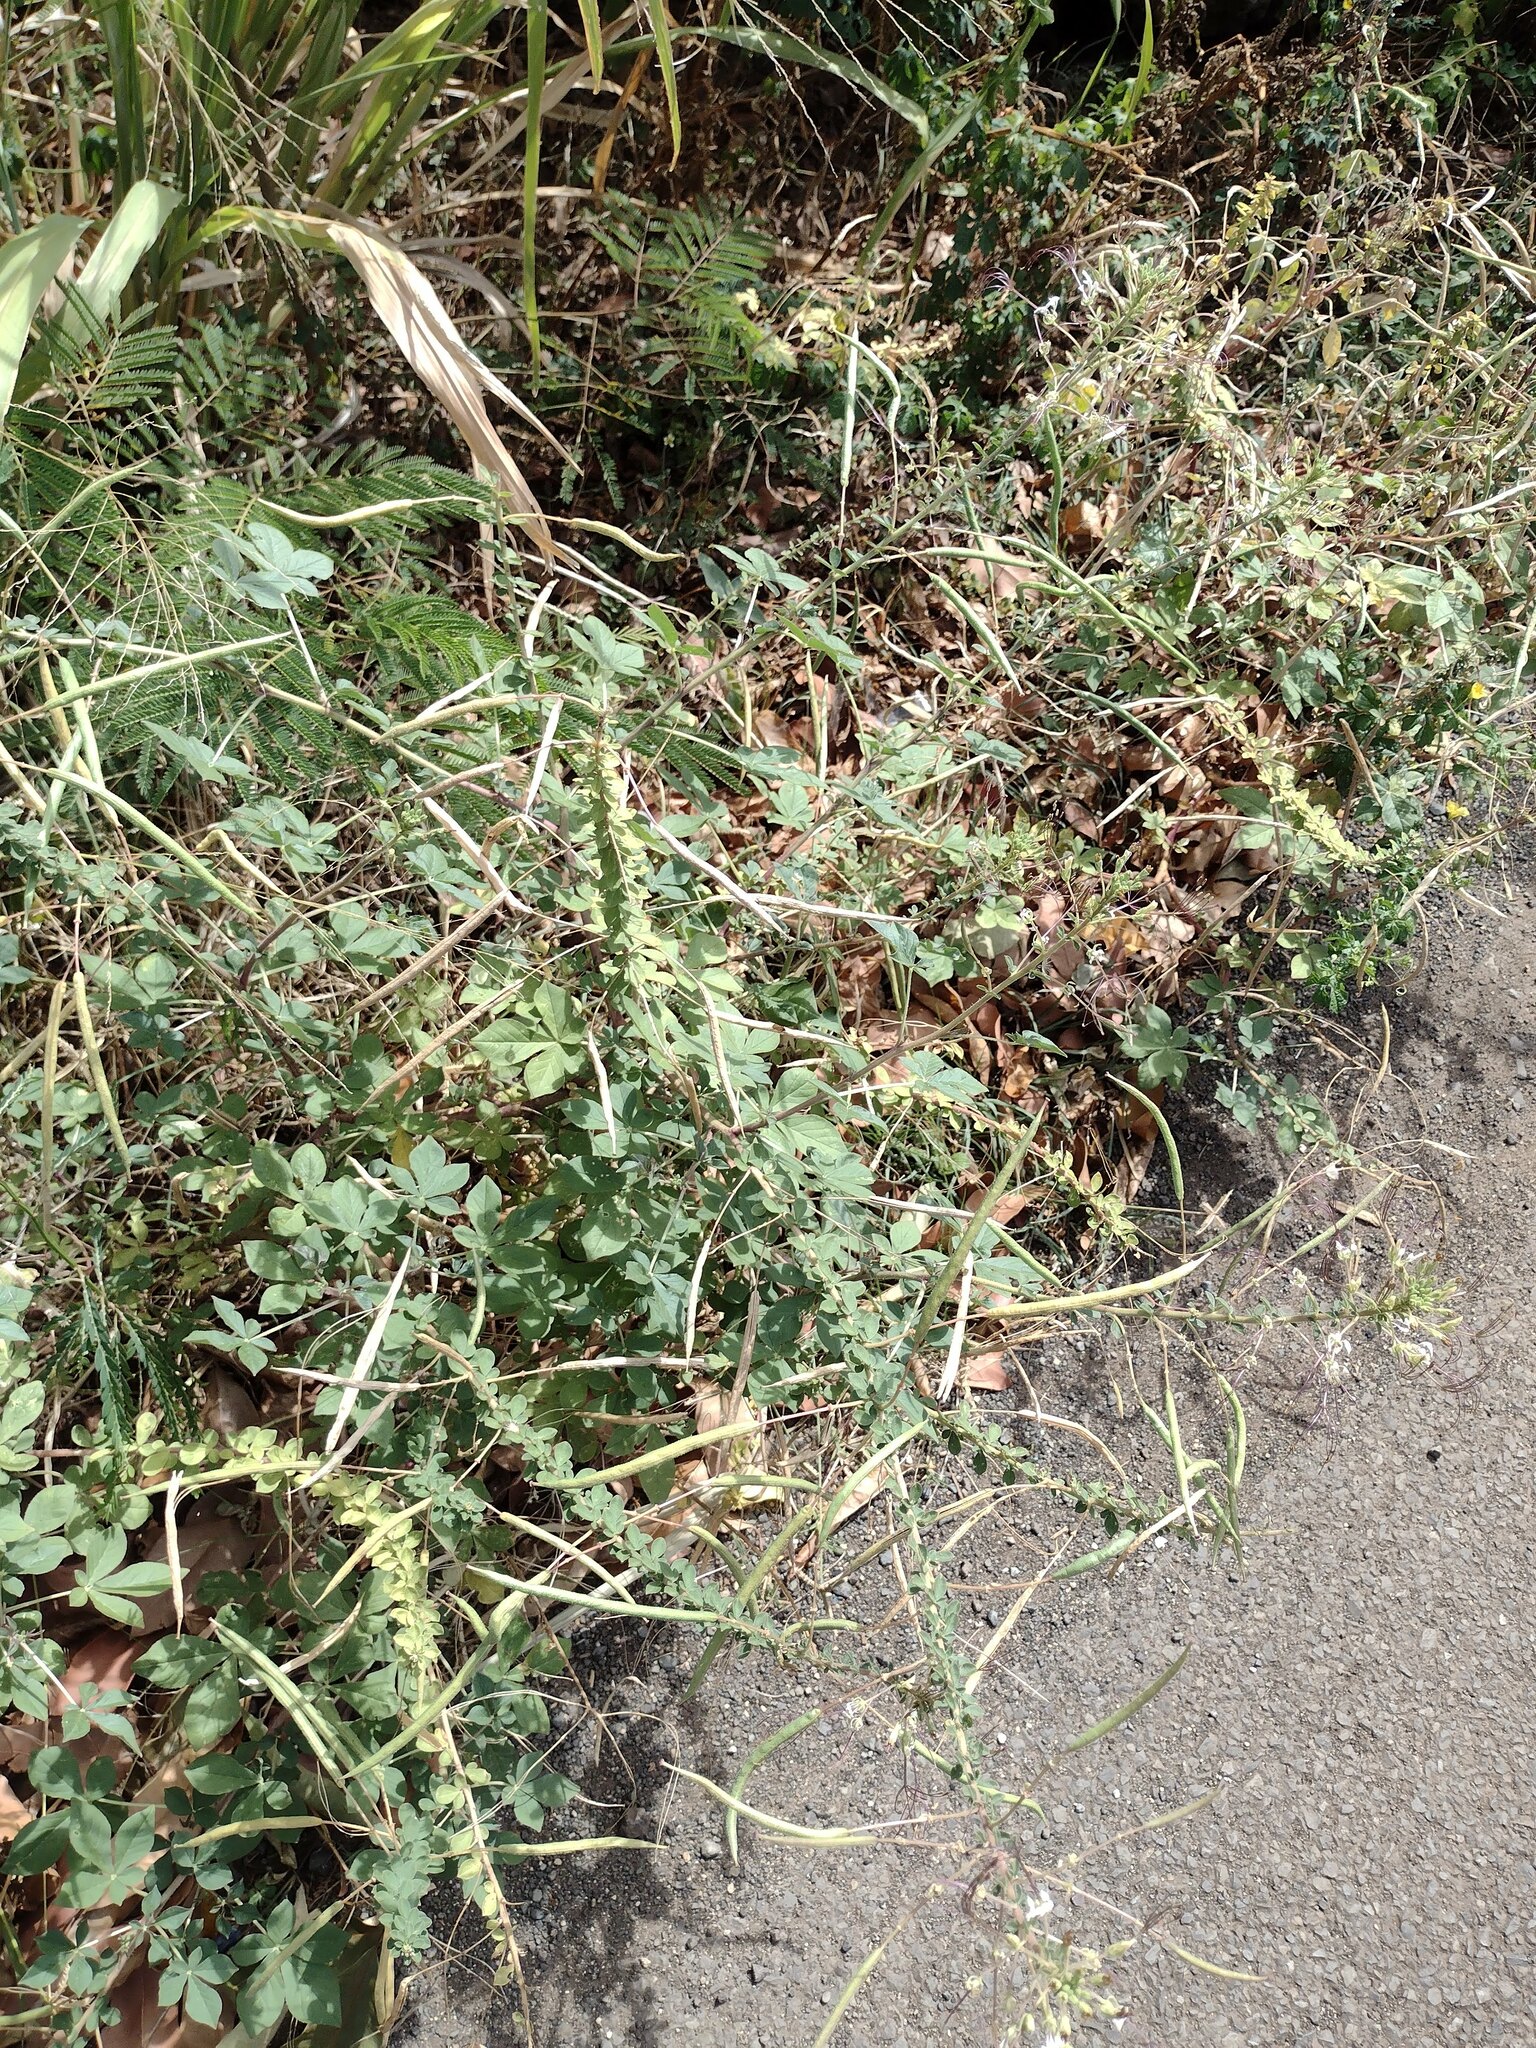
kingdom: Plantae
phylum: Tracheophyta
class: Magnoliopsida
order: Brassicales
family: Cleomaceae
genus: Gynandropsis
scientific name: Gynandropsis gynandra
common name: Spiderwisp
